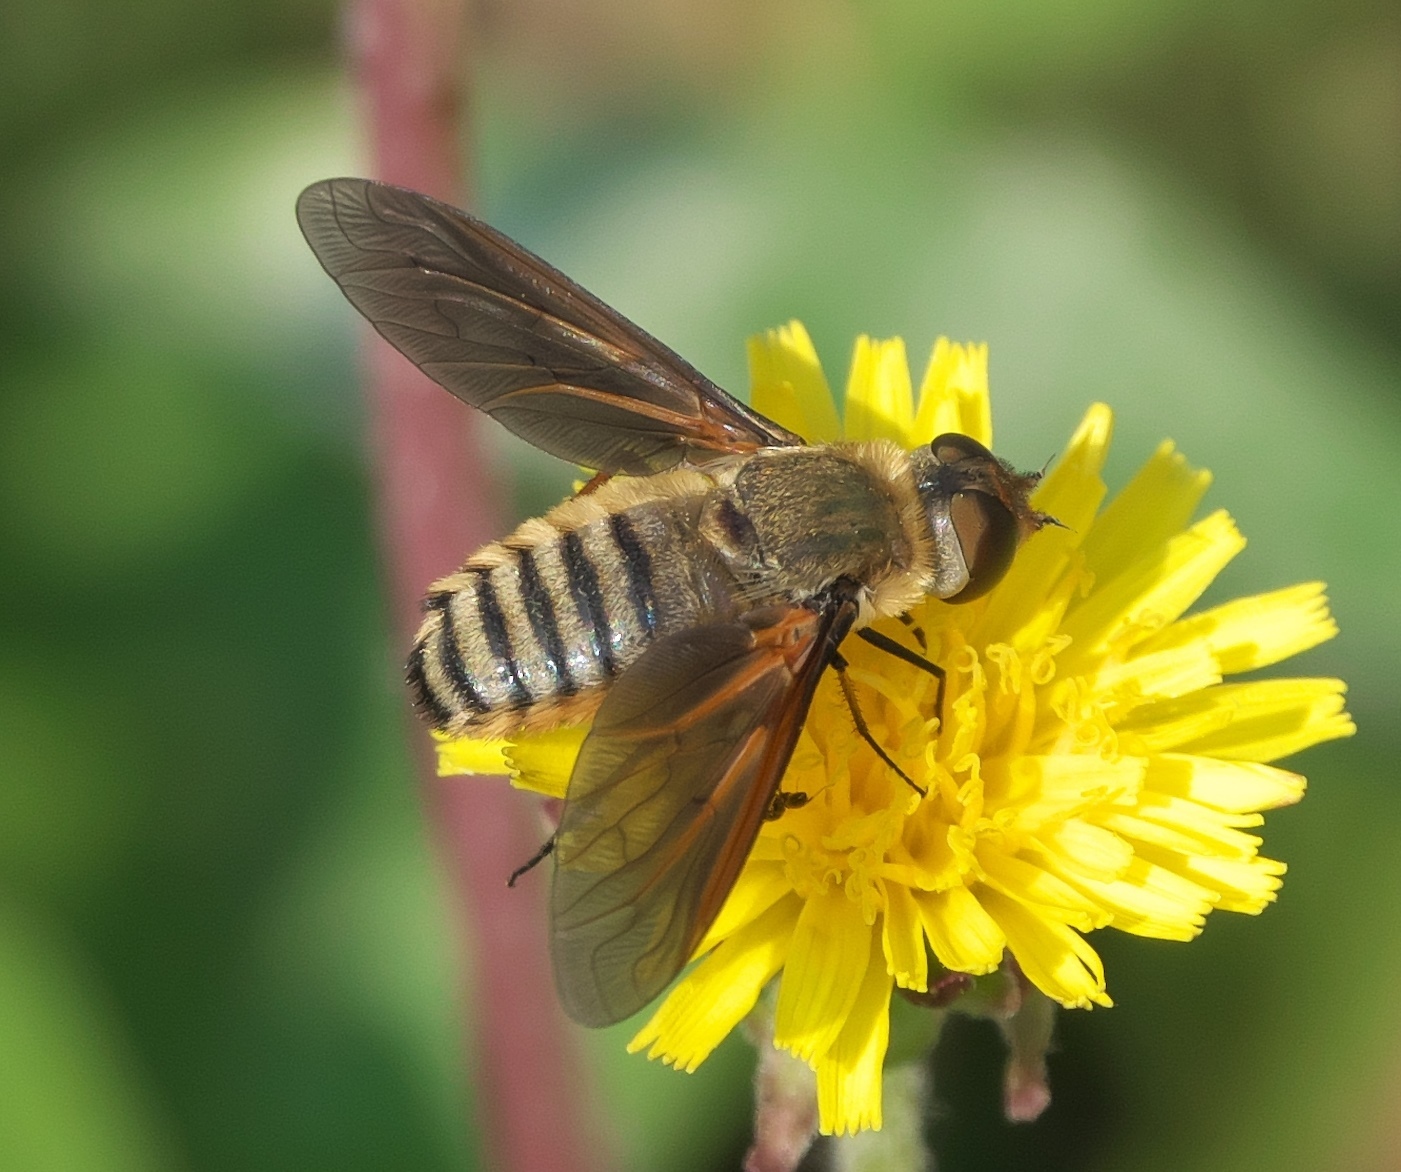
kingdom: Animalia
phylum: Arthropoda
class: Insecta
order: Diptera
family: Bombyliidae
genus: Poecilanthrax
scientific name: Poecilanthrax lucifer
